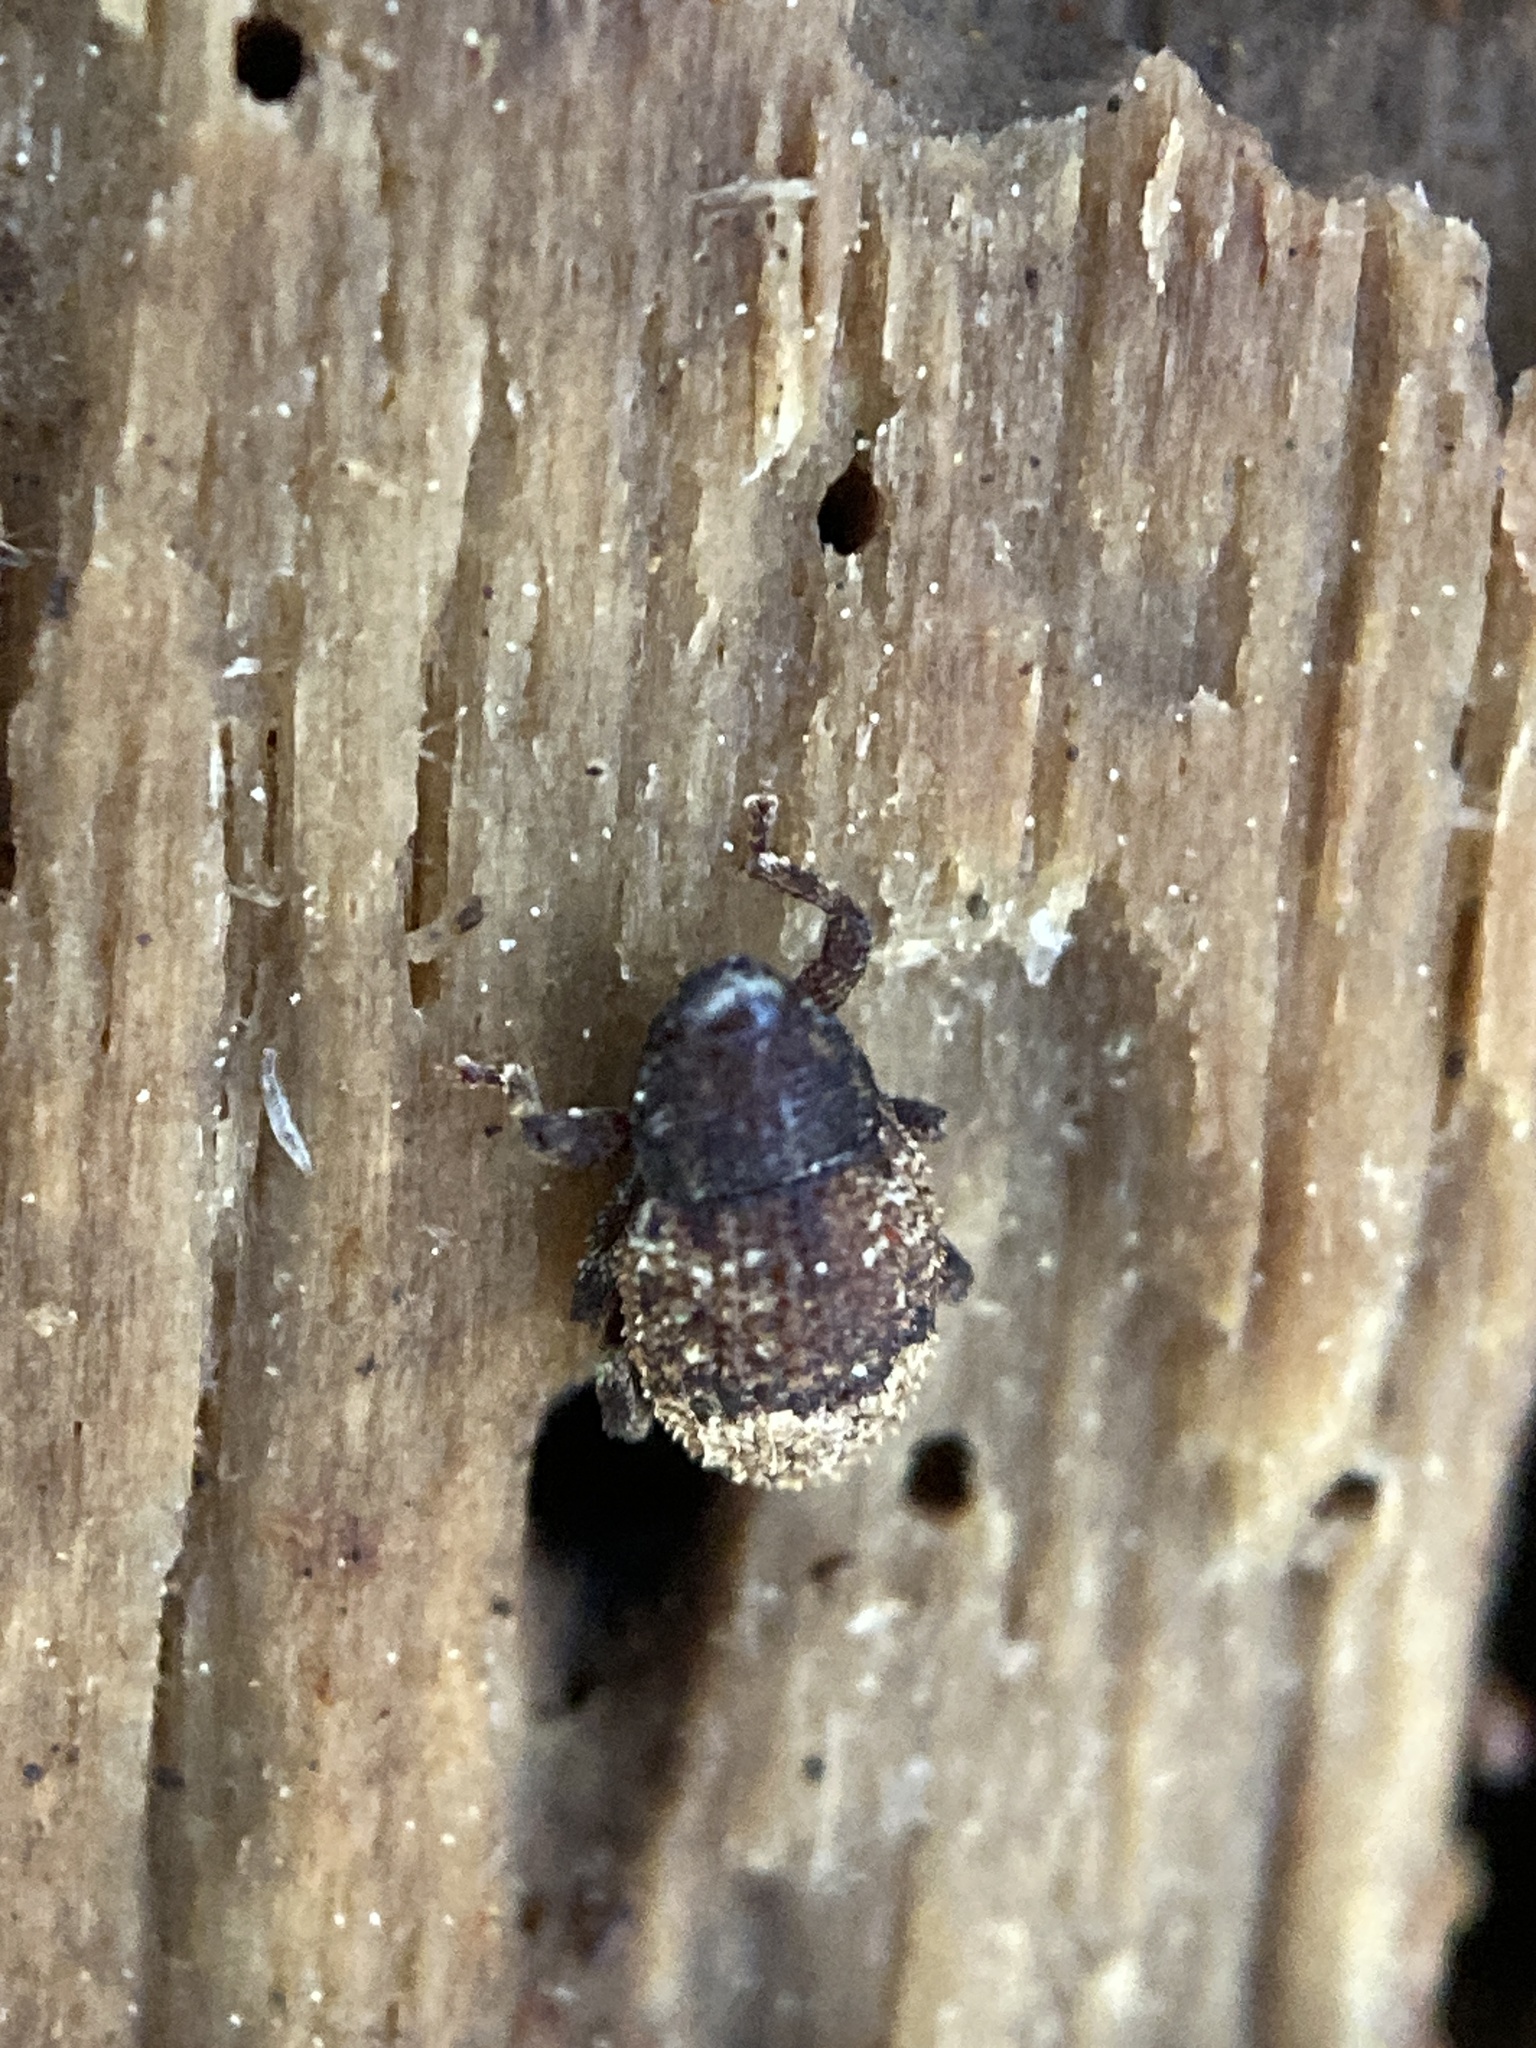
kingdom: Animalia
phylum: Arthropoda
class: Insecta
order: Coleoptera
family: Curculionidae
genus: Pseudoacalles
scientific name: Pseudoacalles nuchalis
